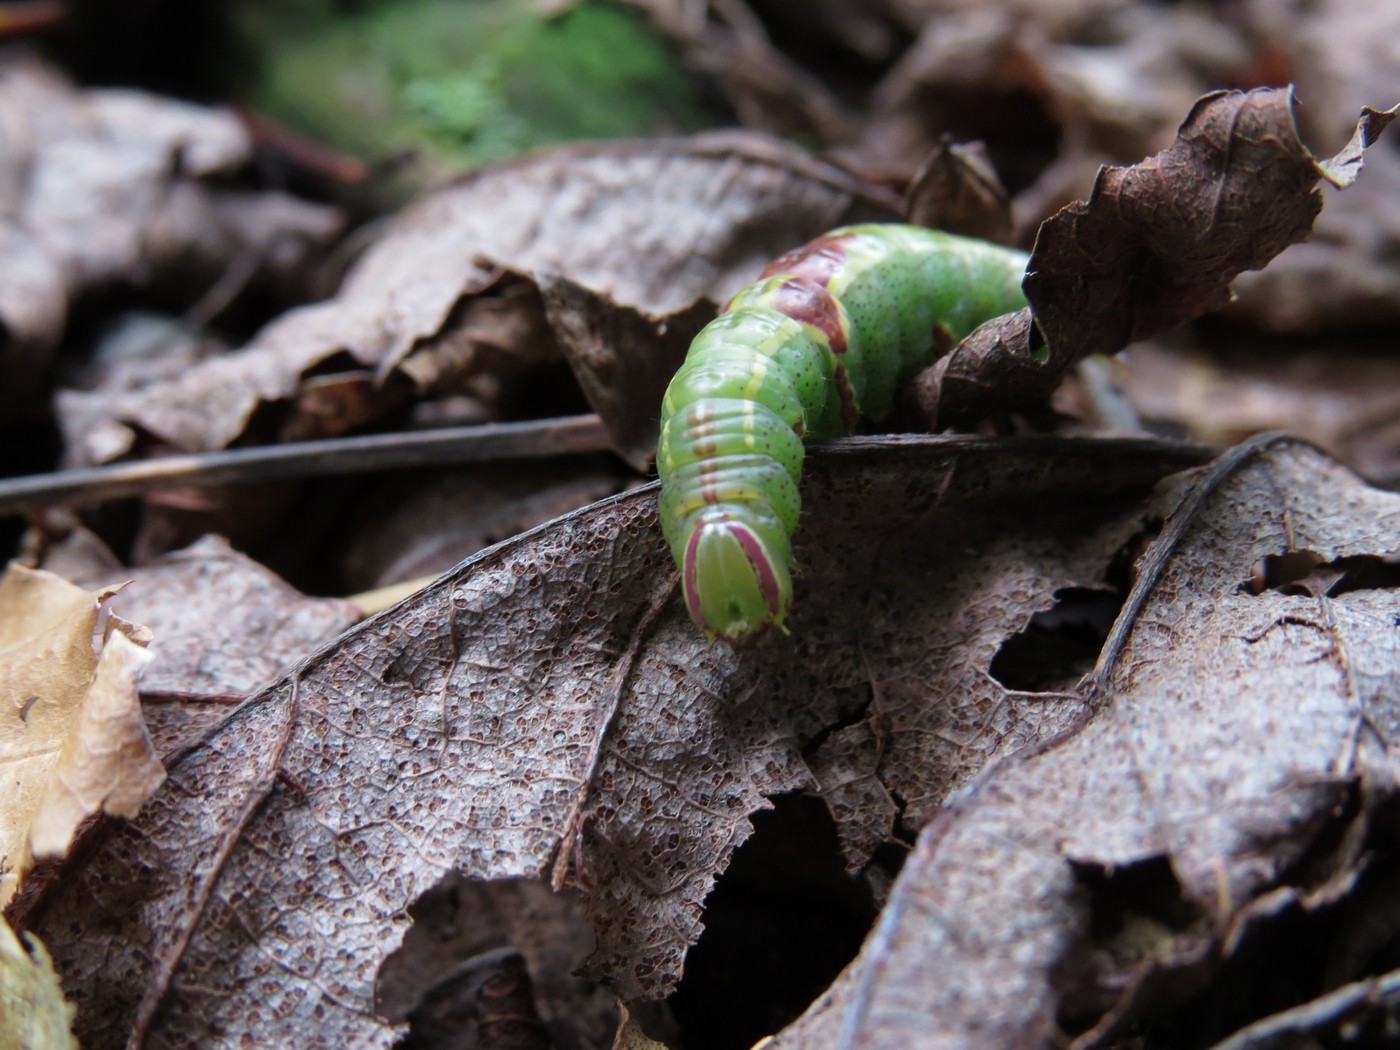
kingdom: Animalia
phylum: Arthropoda
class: Insecta
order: Lepidoptera
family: Notodontidae
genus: Disphragis
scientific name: Disphragis Cecrita guttivitta
